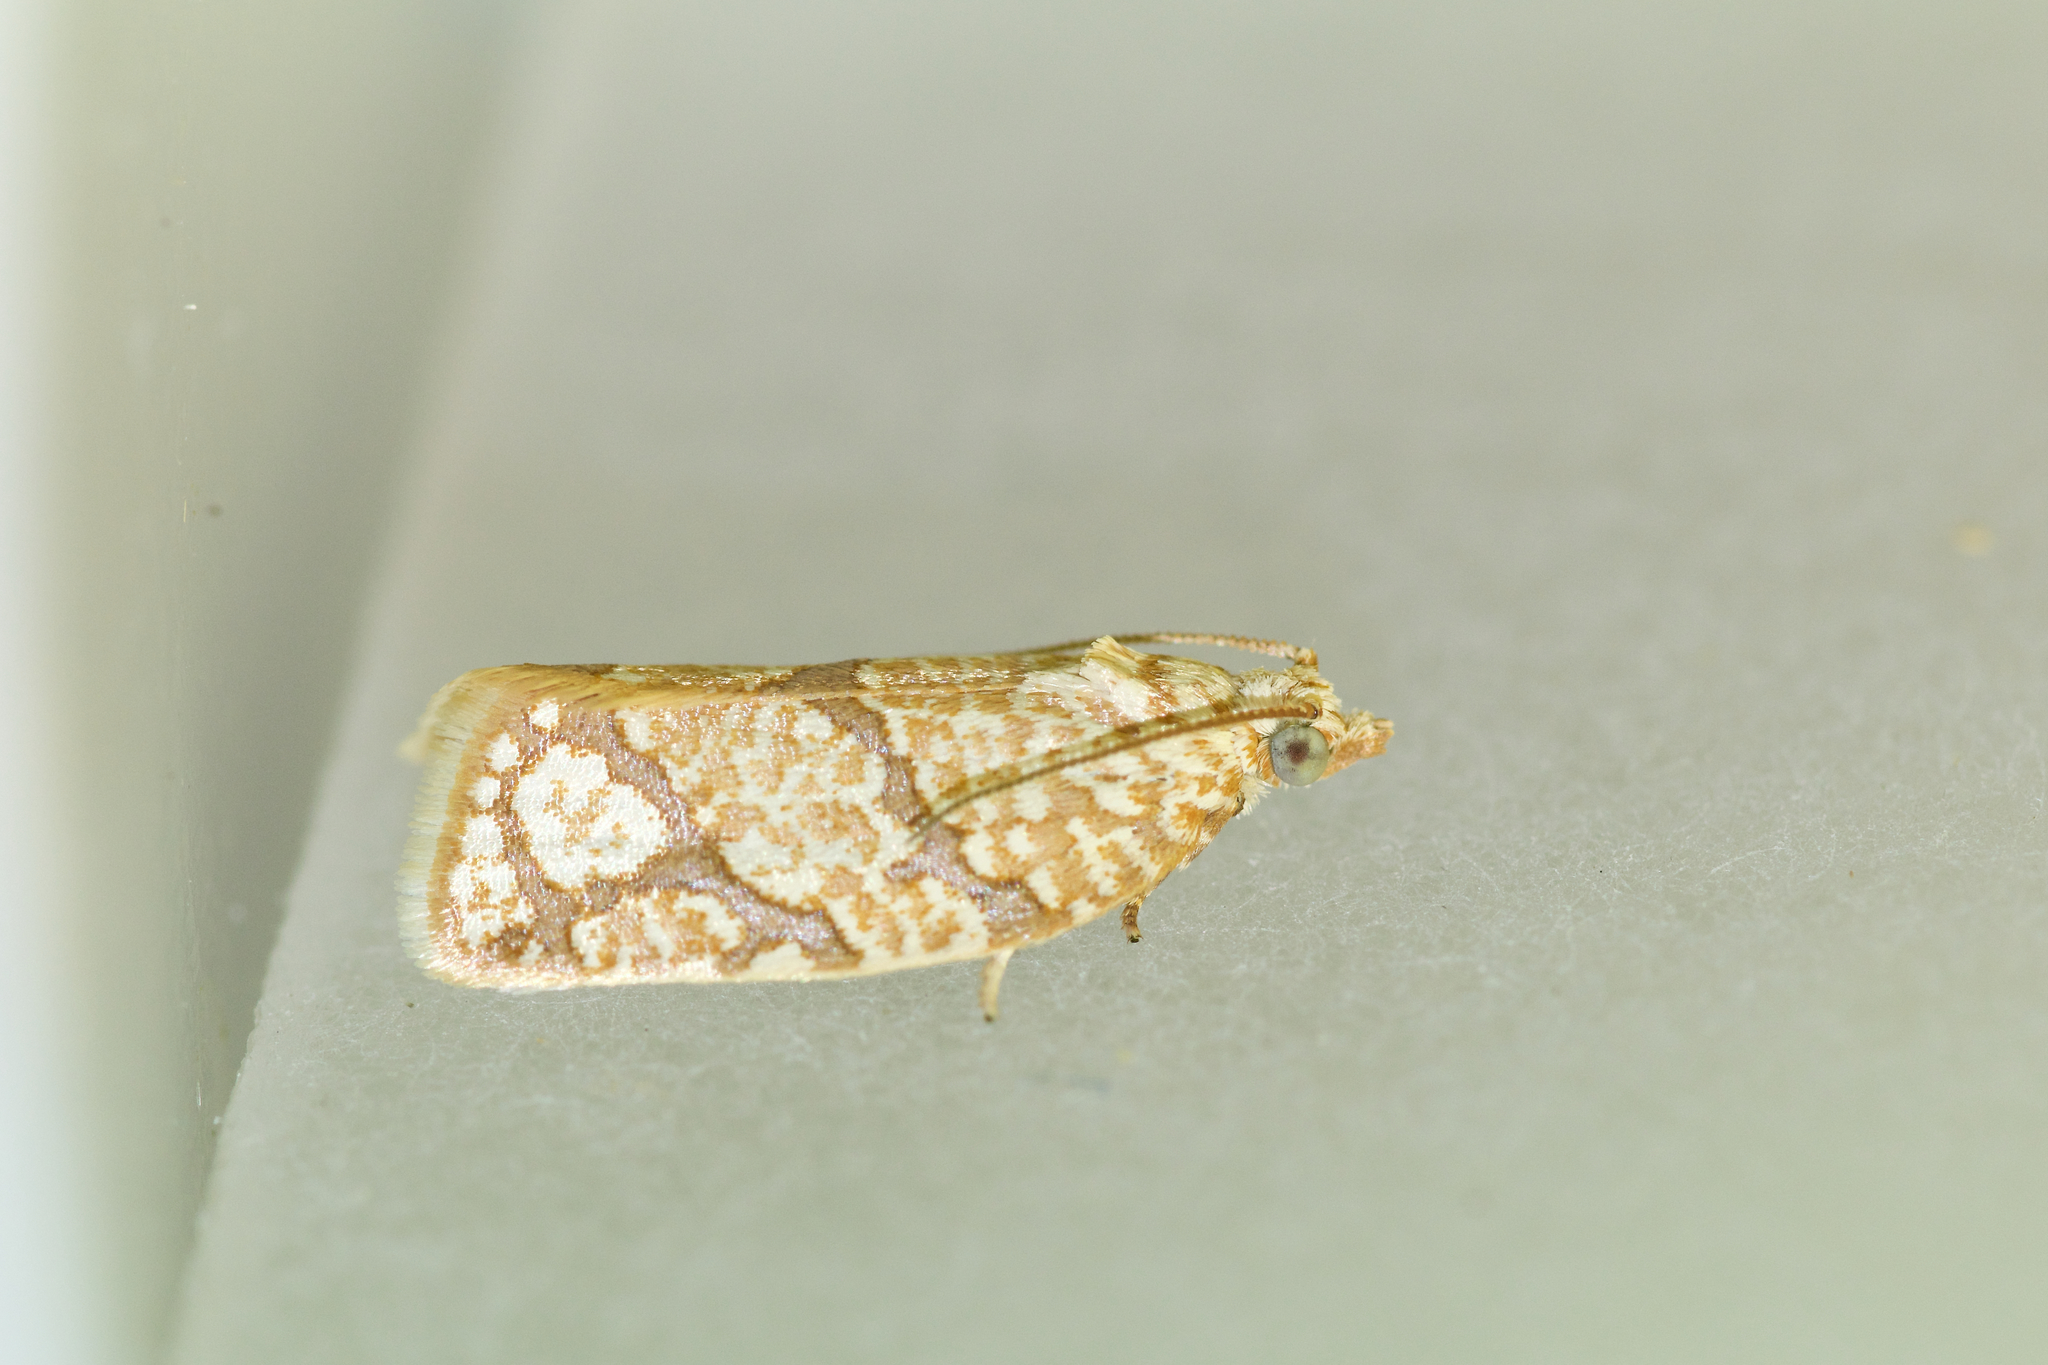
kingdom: Animalia
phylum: Arthropoda
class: Insecta
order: Lepidoptera
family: Tortricidae
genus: Argyrotaenia
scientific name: Argyrotaenia quercifoliana
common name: Yellow-winged oak leafroller moth
